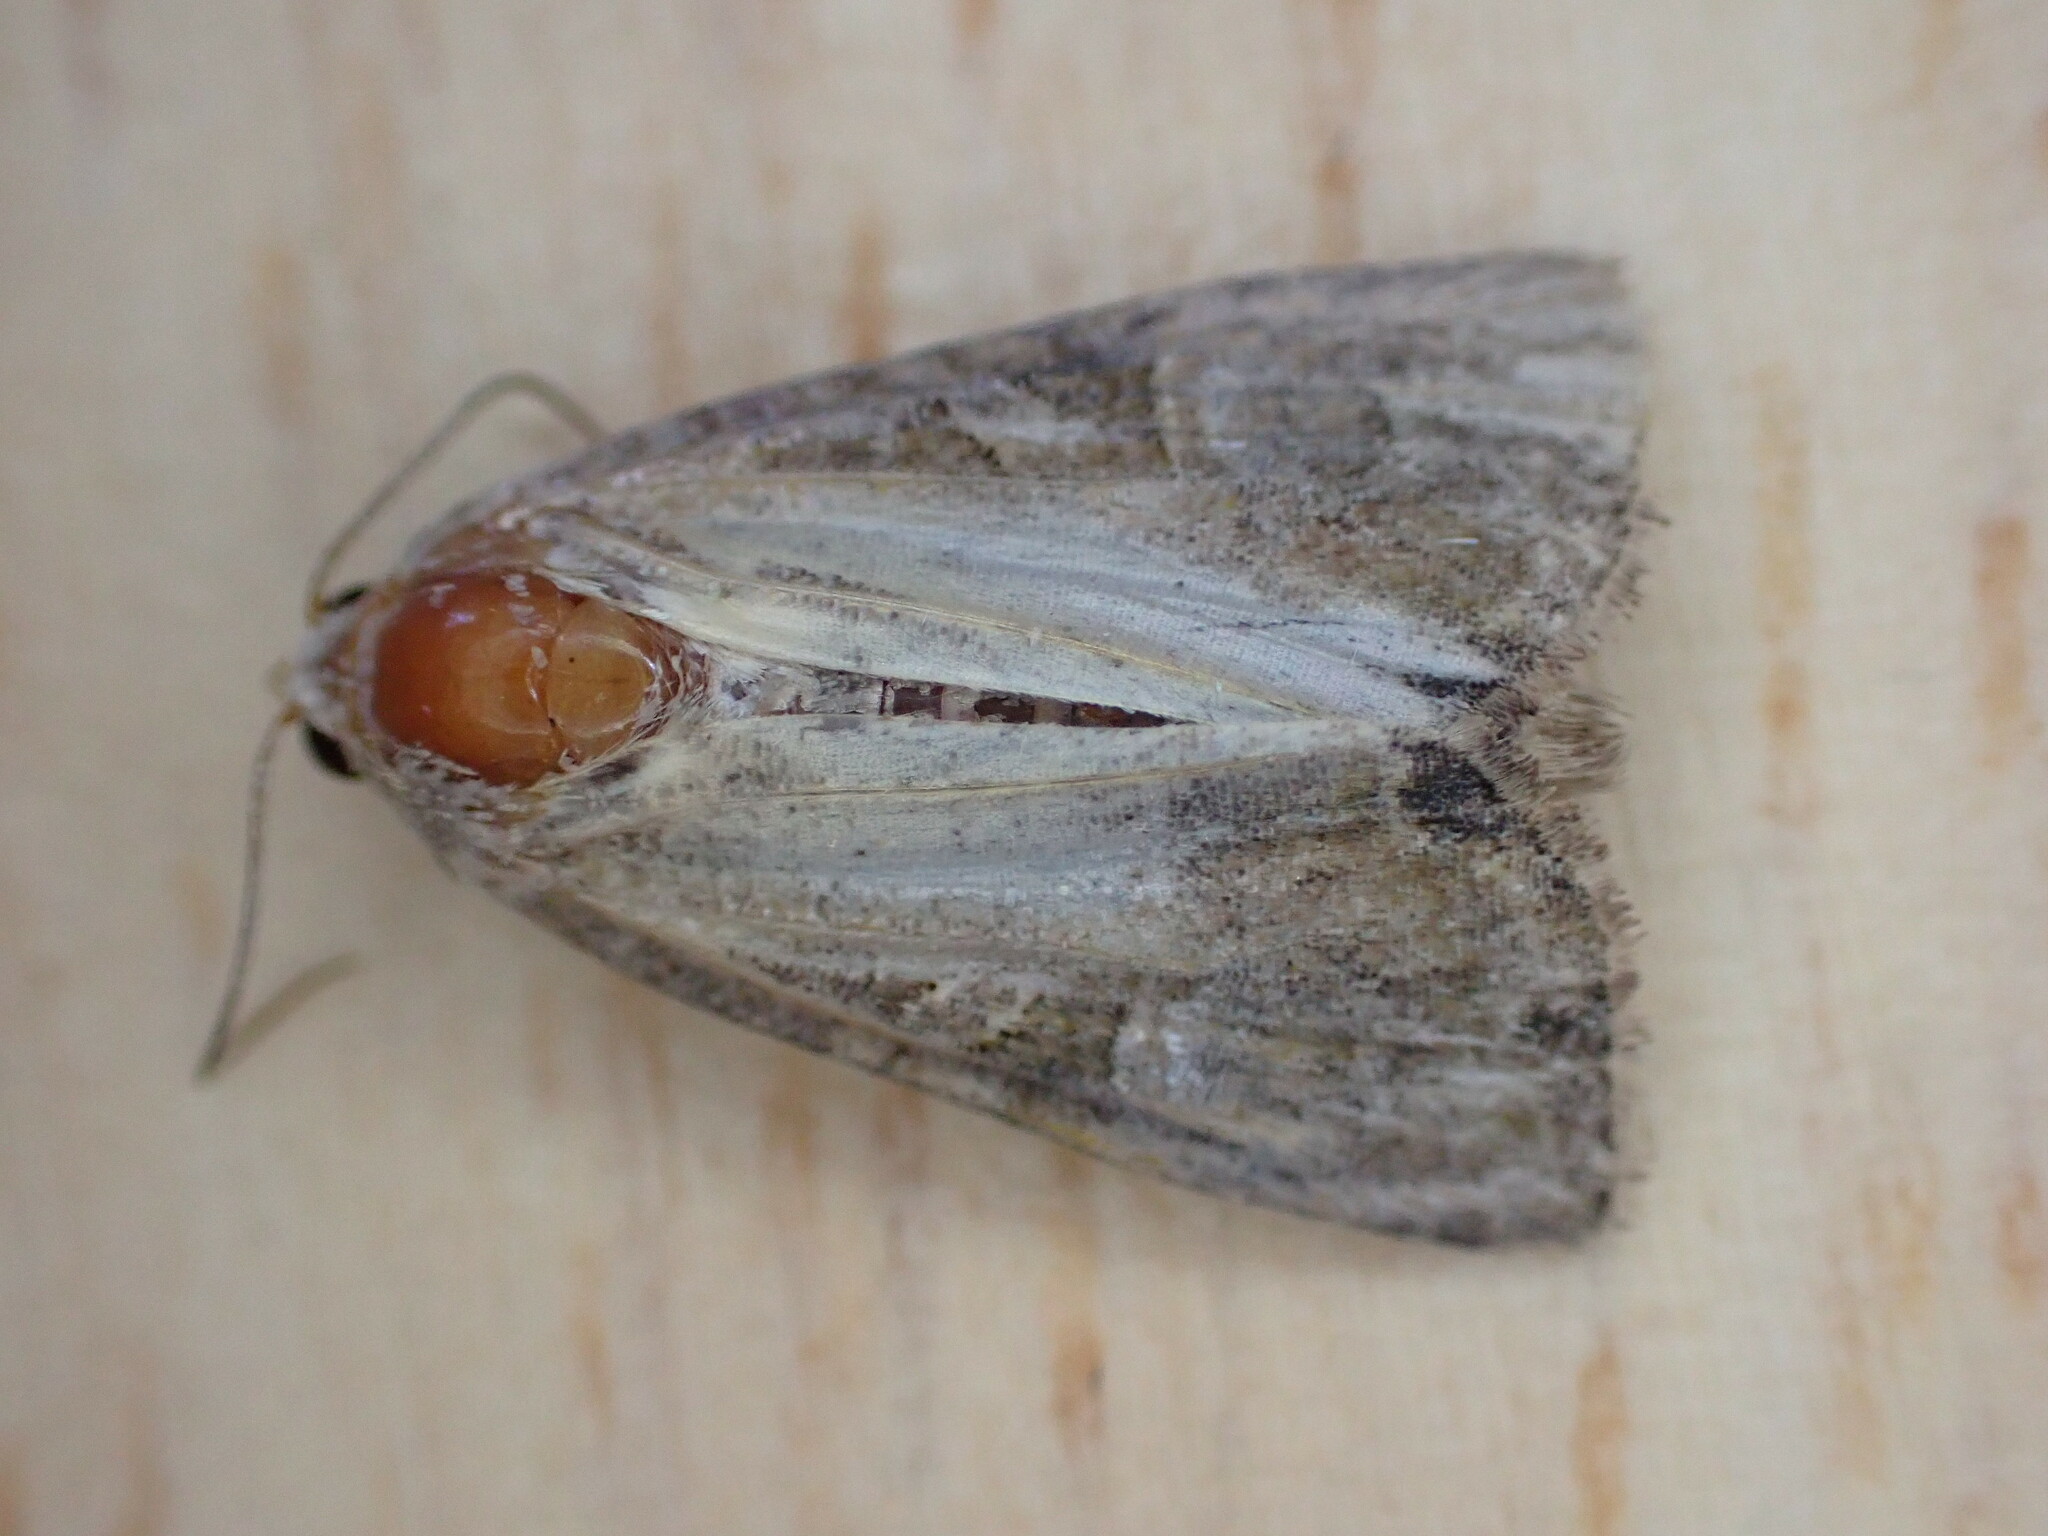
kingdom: Animalia
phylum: Arthropoda
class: Insecta
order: Lepidoptera
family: Noctuidae
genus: Mesoligia
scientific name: Mesoligia furuncula
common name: Cloaked minor
